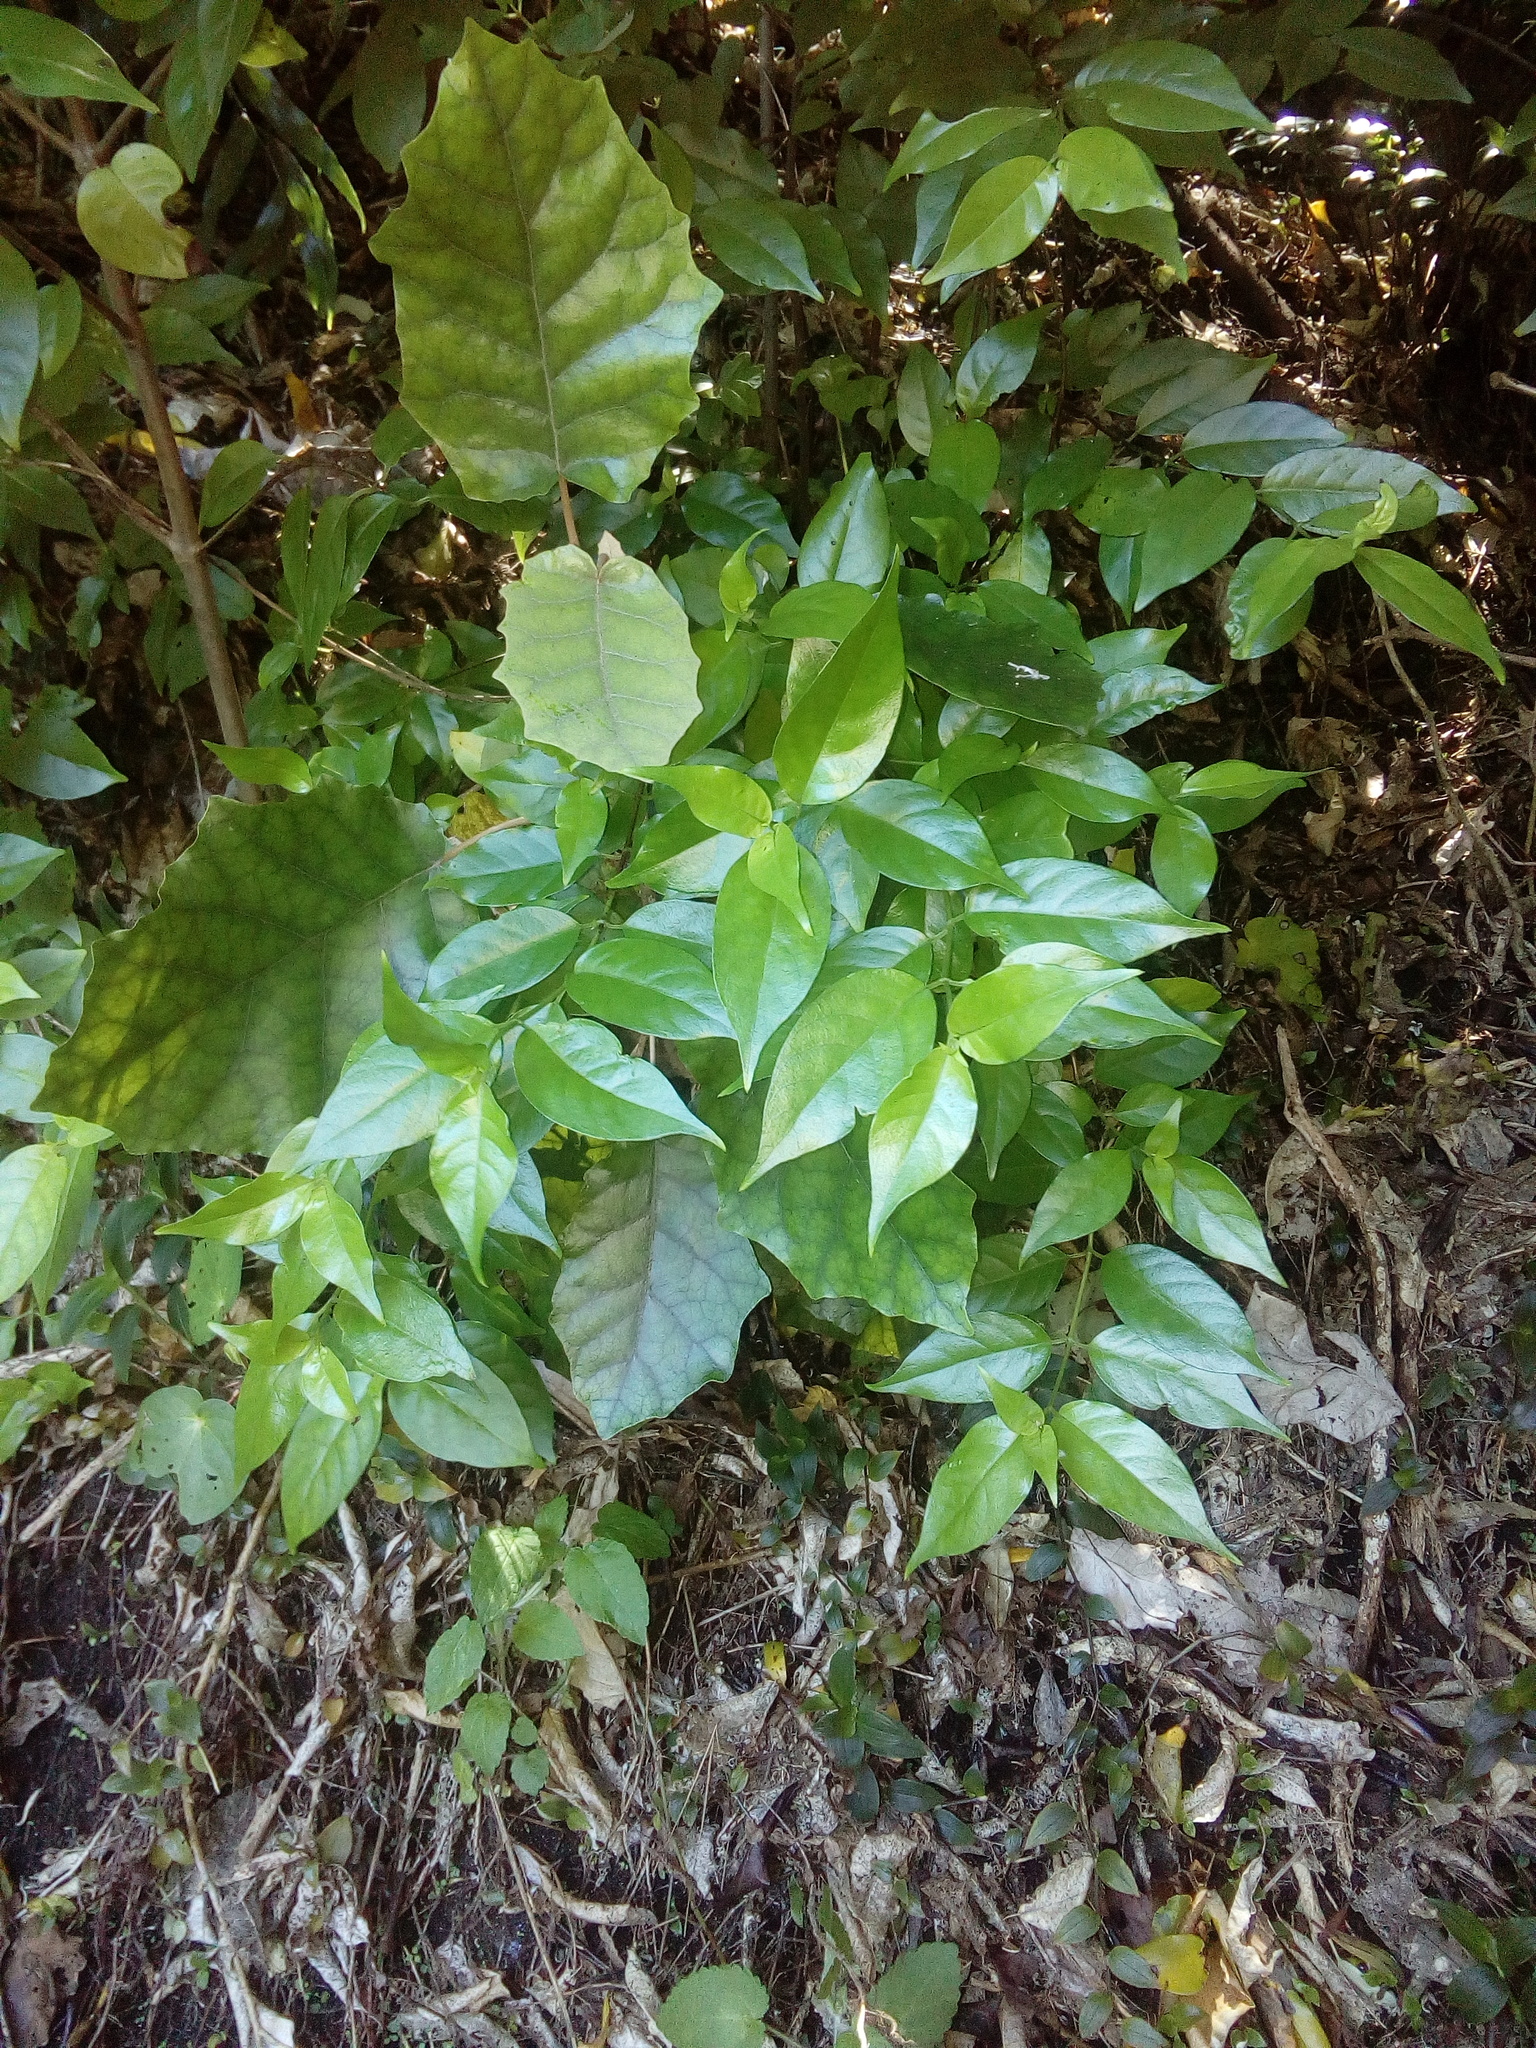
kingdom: Plantae
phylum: Tracheophyta
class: Magnoliopsida
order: Gentianales
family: Loganiaceae
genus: Geniostoma
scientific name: Geniostoma ligustrifolium
